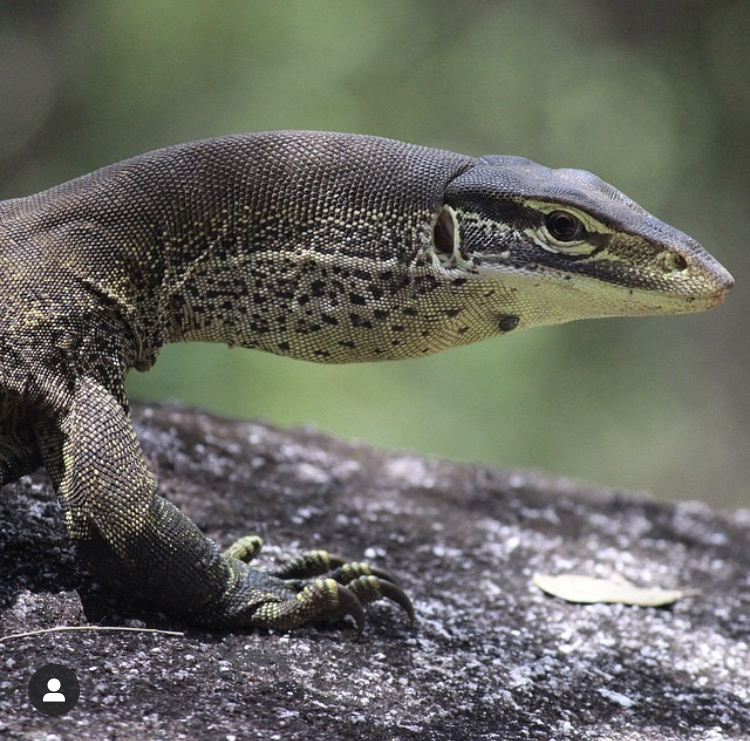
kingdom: Animalia
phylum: Chordata
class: Squamata
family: Varanidae
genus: Varanus
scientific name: Varanus panoptes
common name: Yellow-spotted monitor
